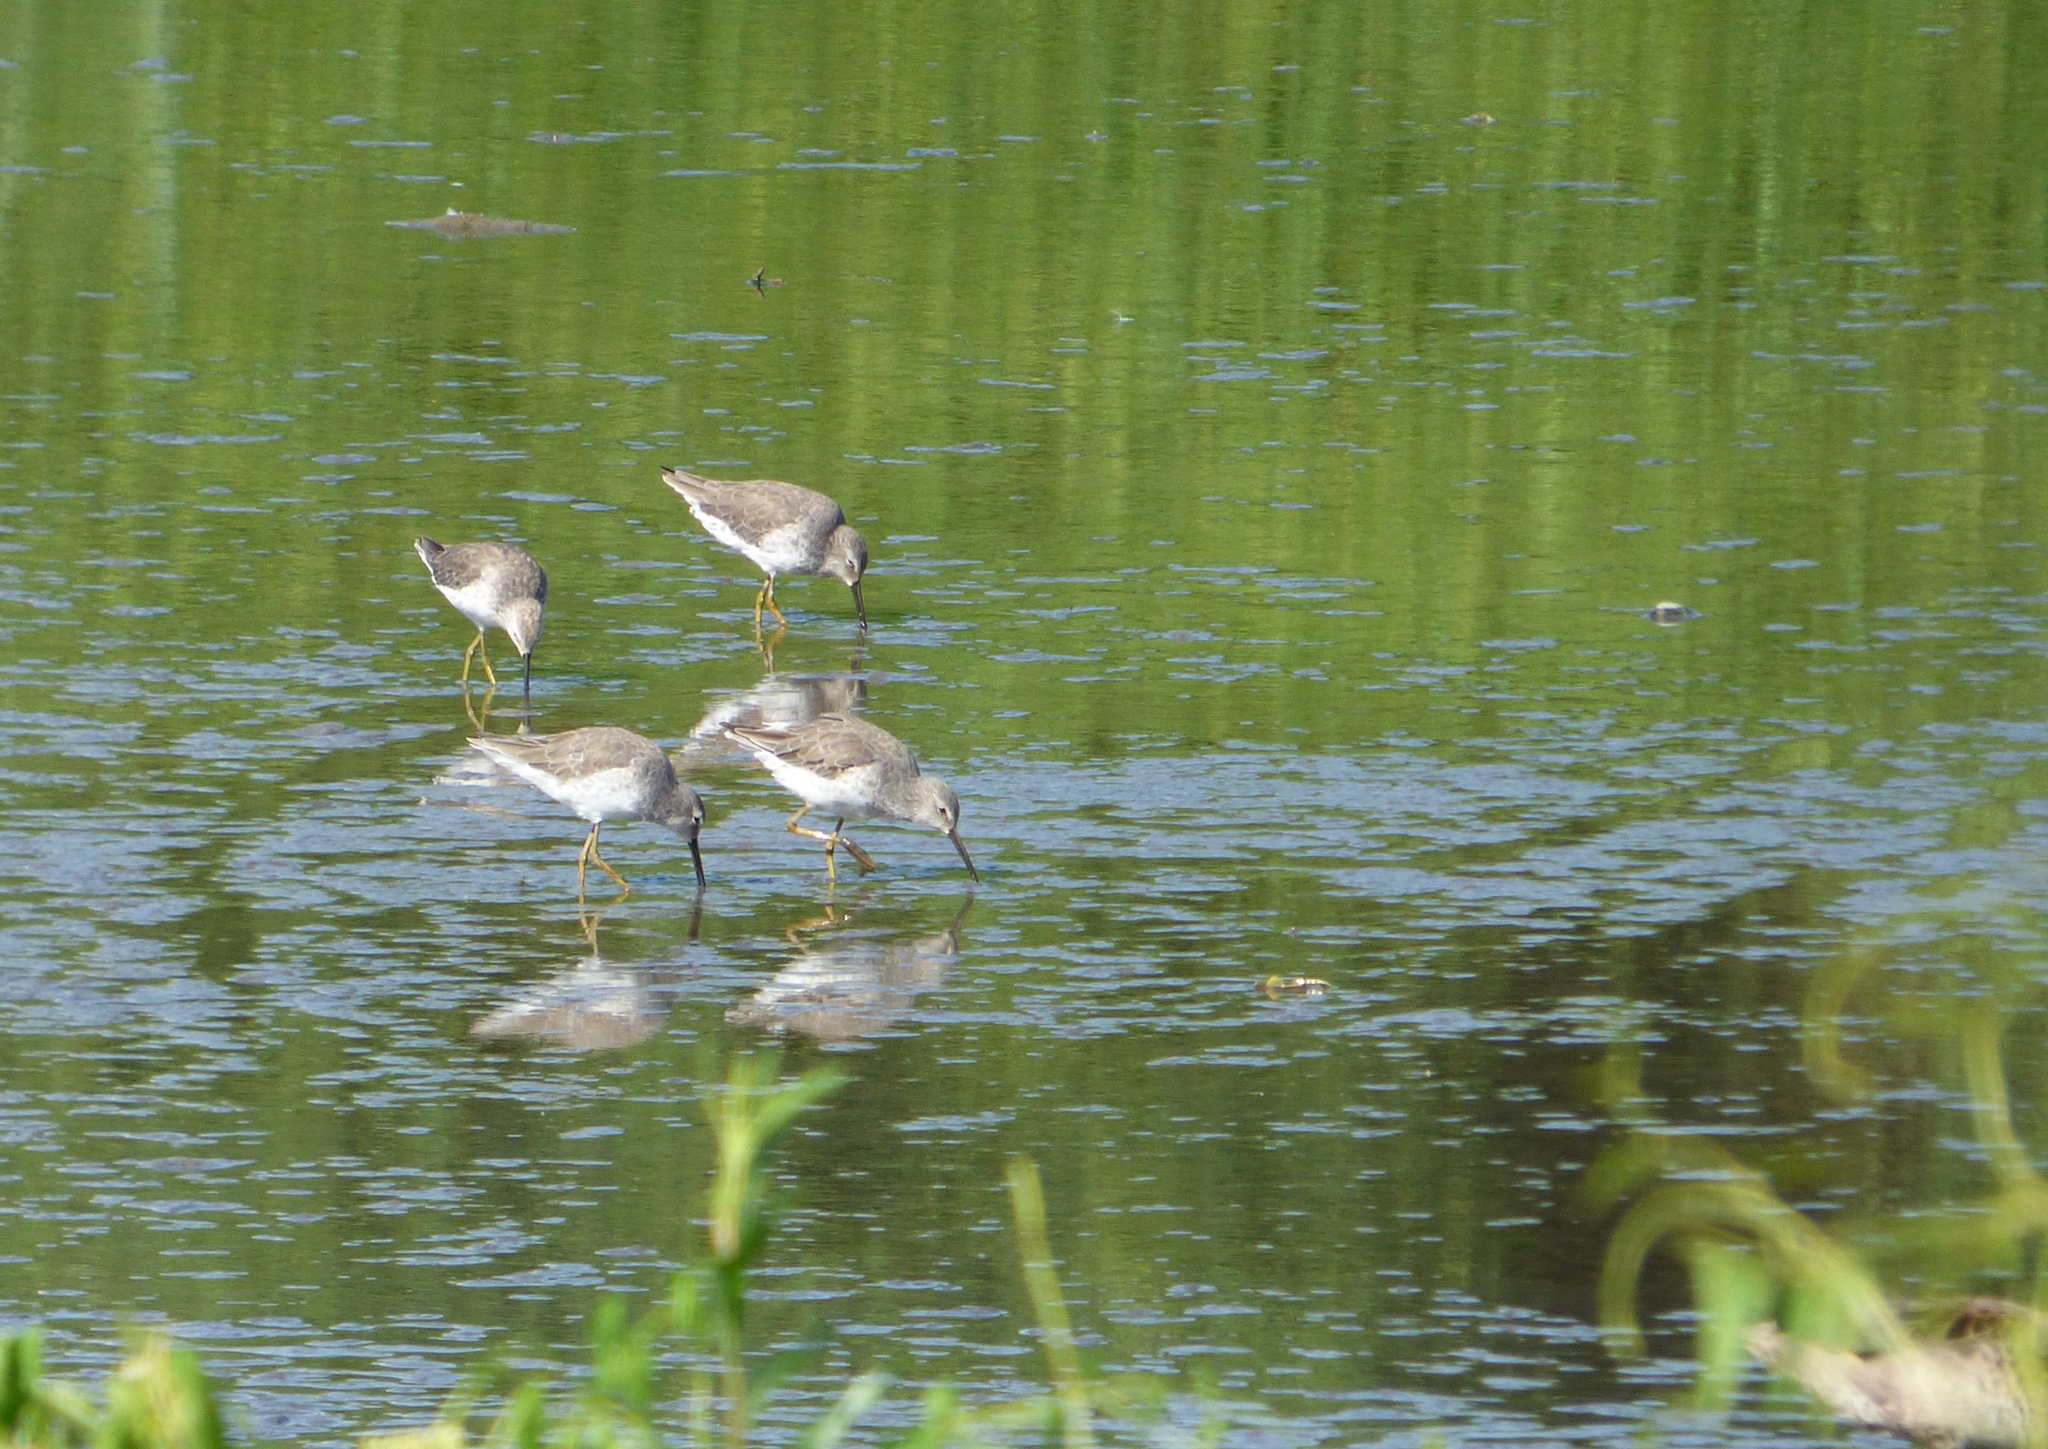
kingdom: Animalia
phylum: Chordata
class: Aves
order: Charadriiformes
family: Scolopacidae
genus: Calidris
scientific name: Calidris himantopus
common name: Stilt sandpiper
